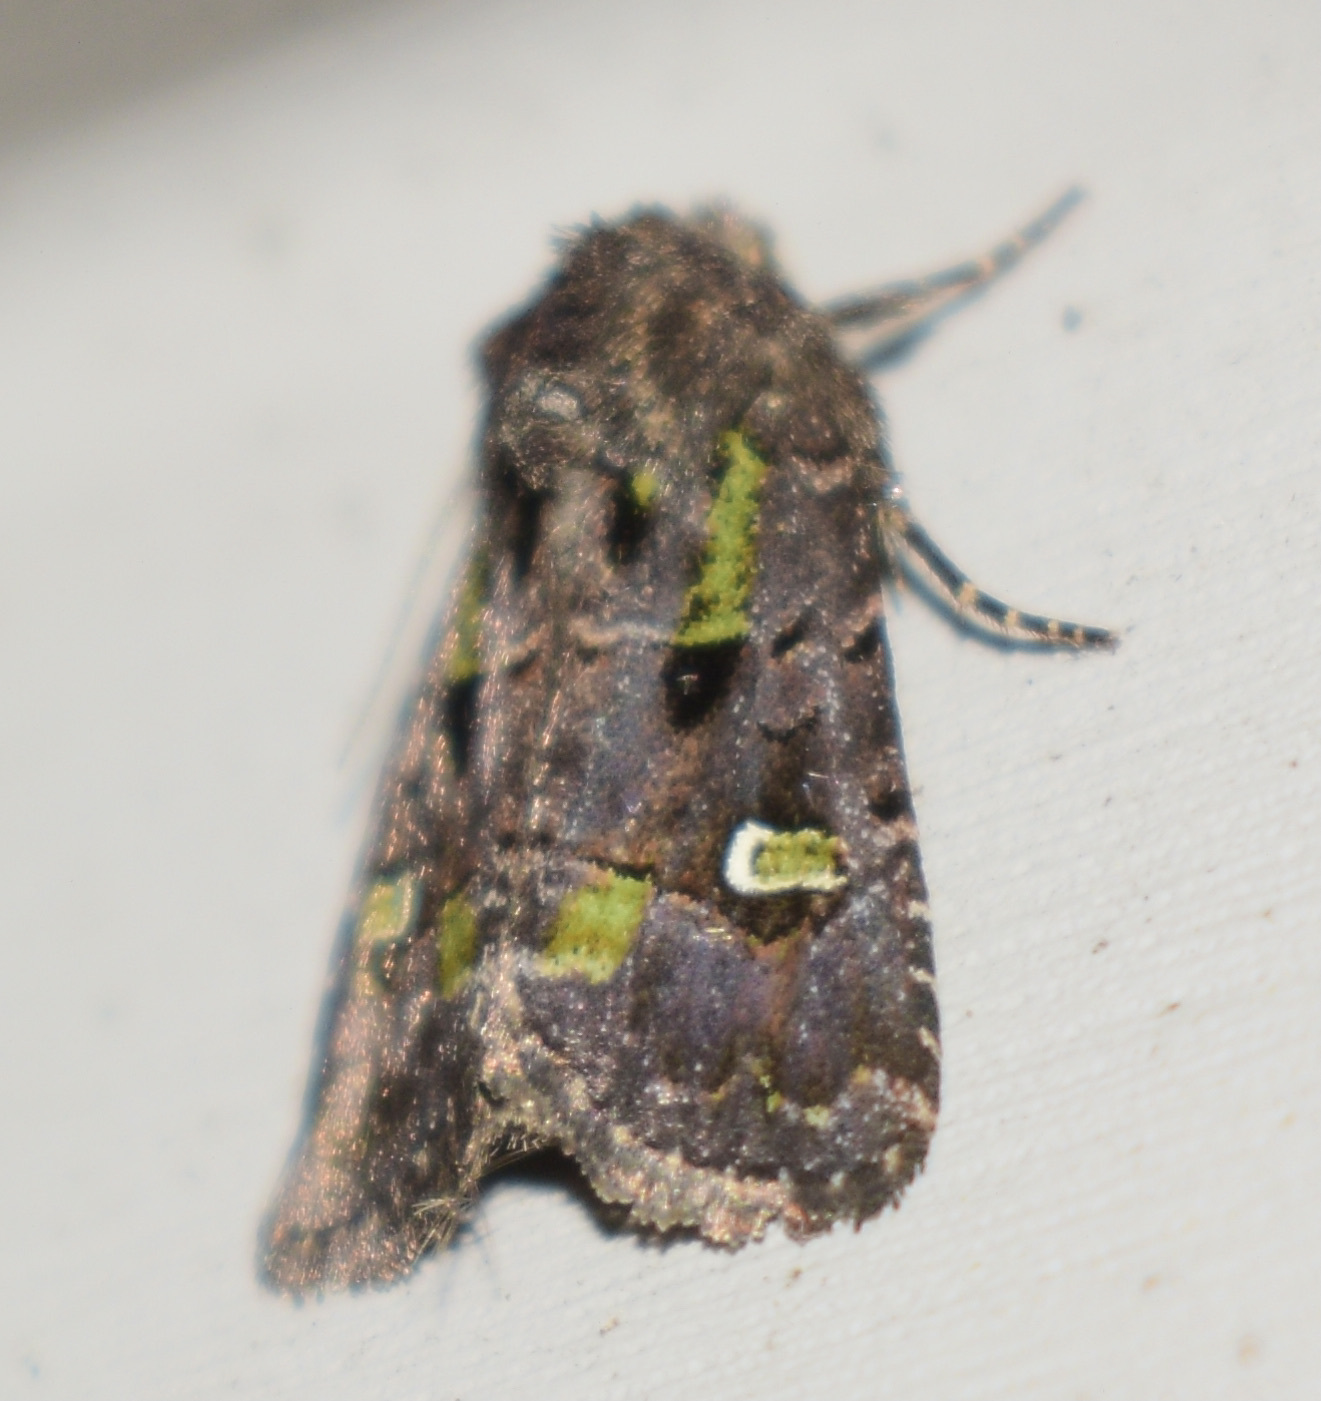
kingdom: Animalia
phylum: Arthropoda
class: Insecta
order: Lepidoptera
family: Noctuidae
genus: Lacinipolia
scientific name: Lacinipolia renigera
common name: Kidney-spotted minor
